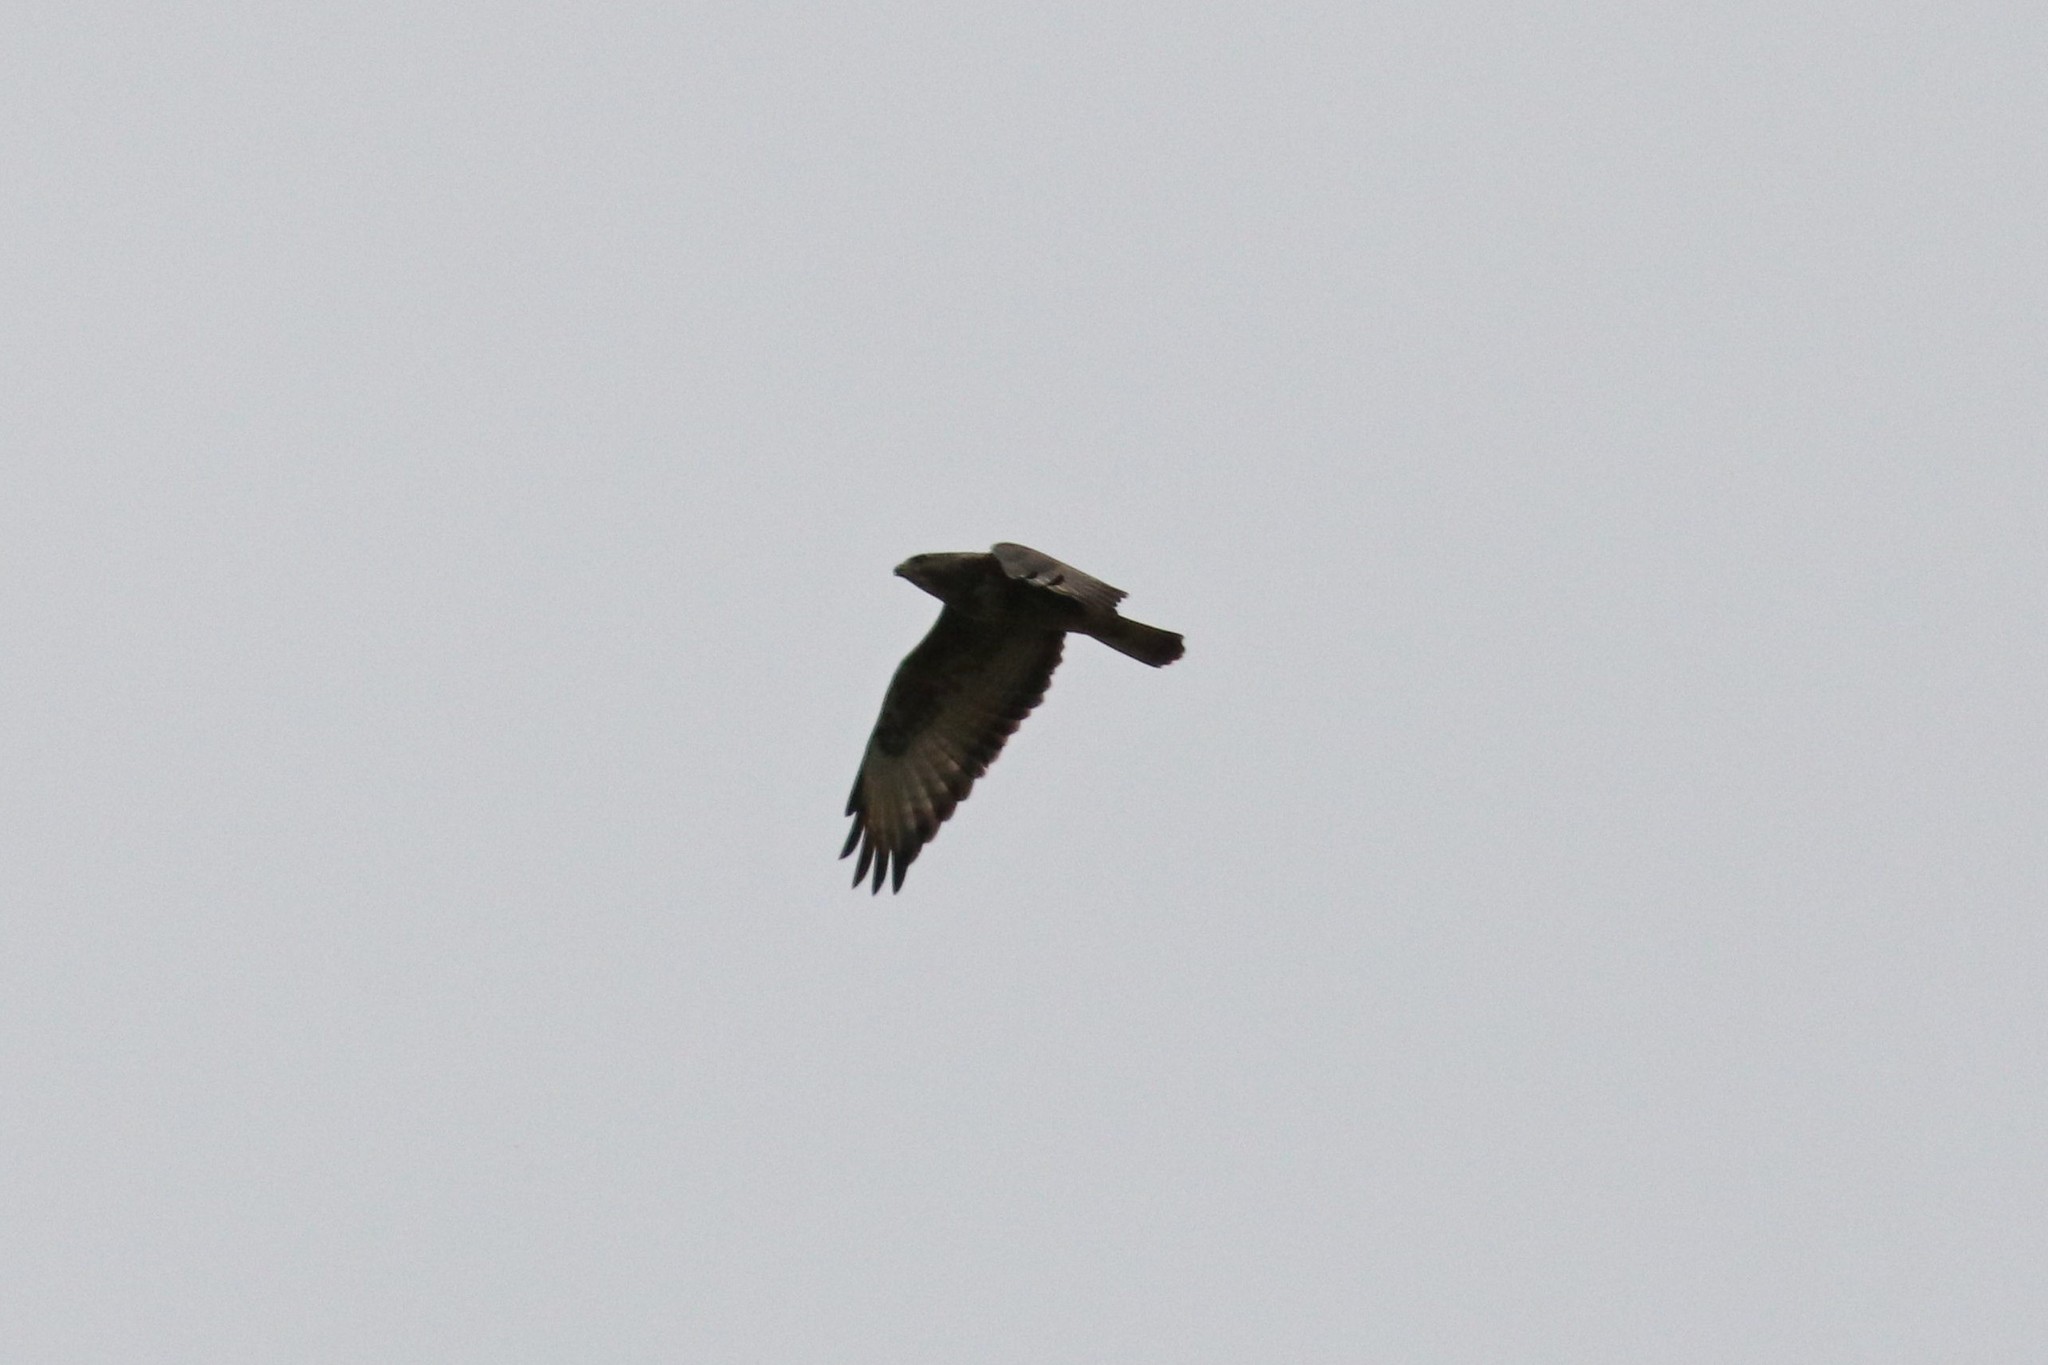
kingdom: Animalia
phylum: Chordata
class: Aves
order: Accipitriformes
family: Accipitridae
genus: Buteo
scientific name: Buteo buteo
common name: Common buzzard
